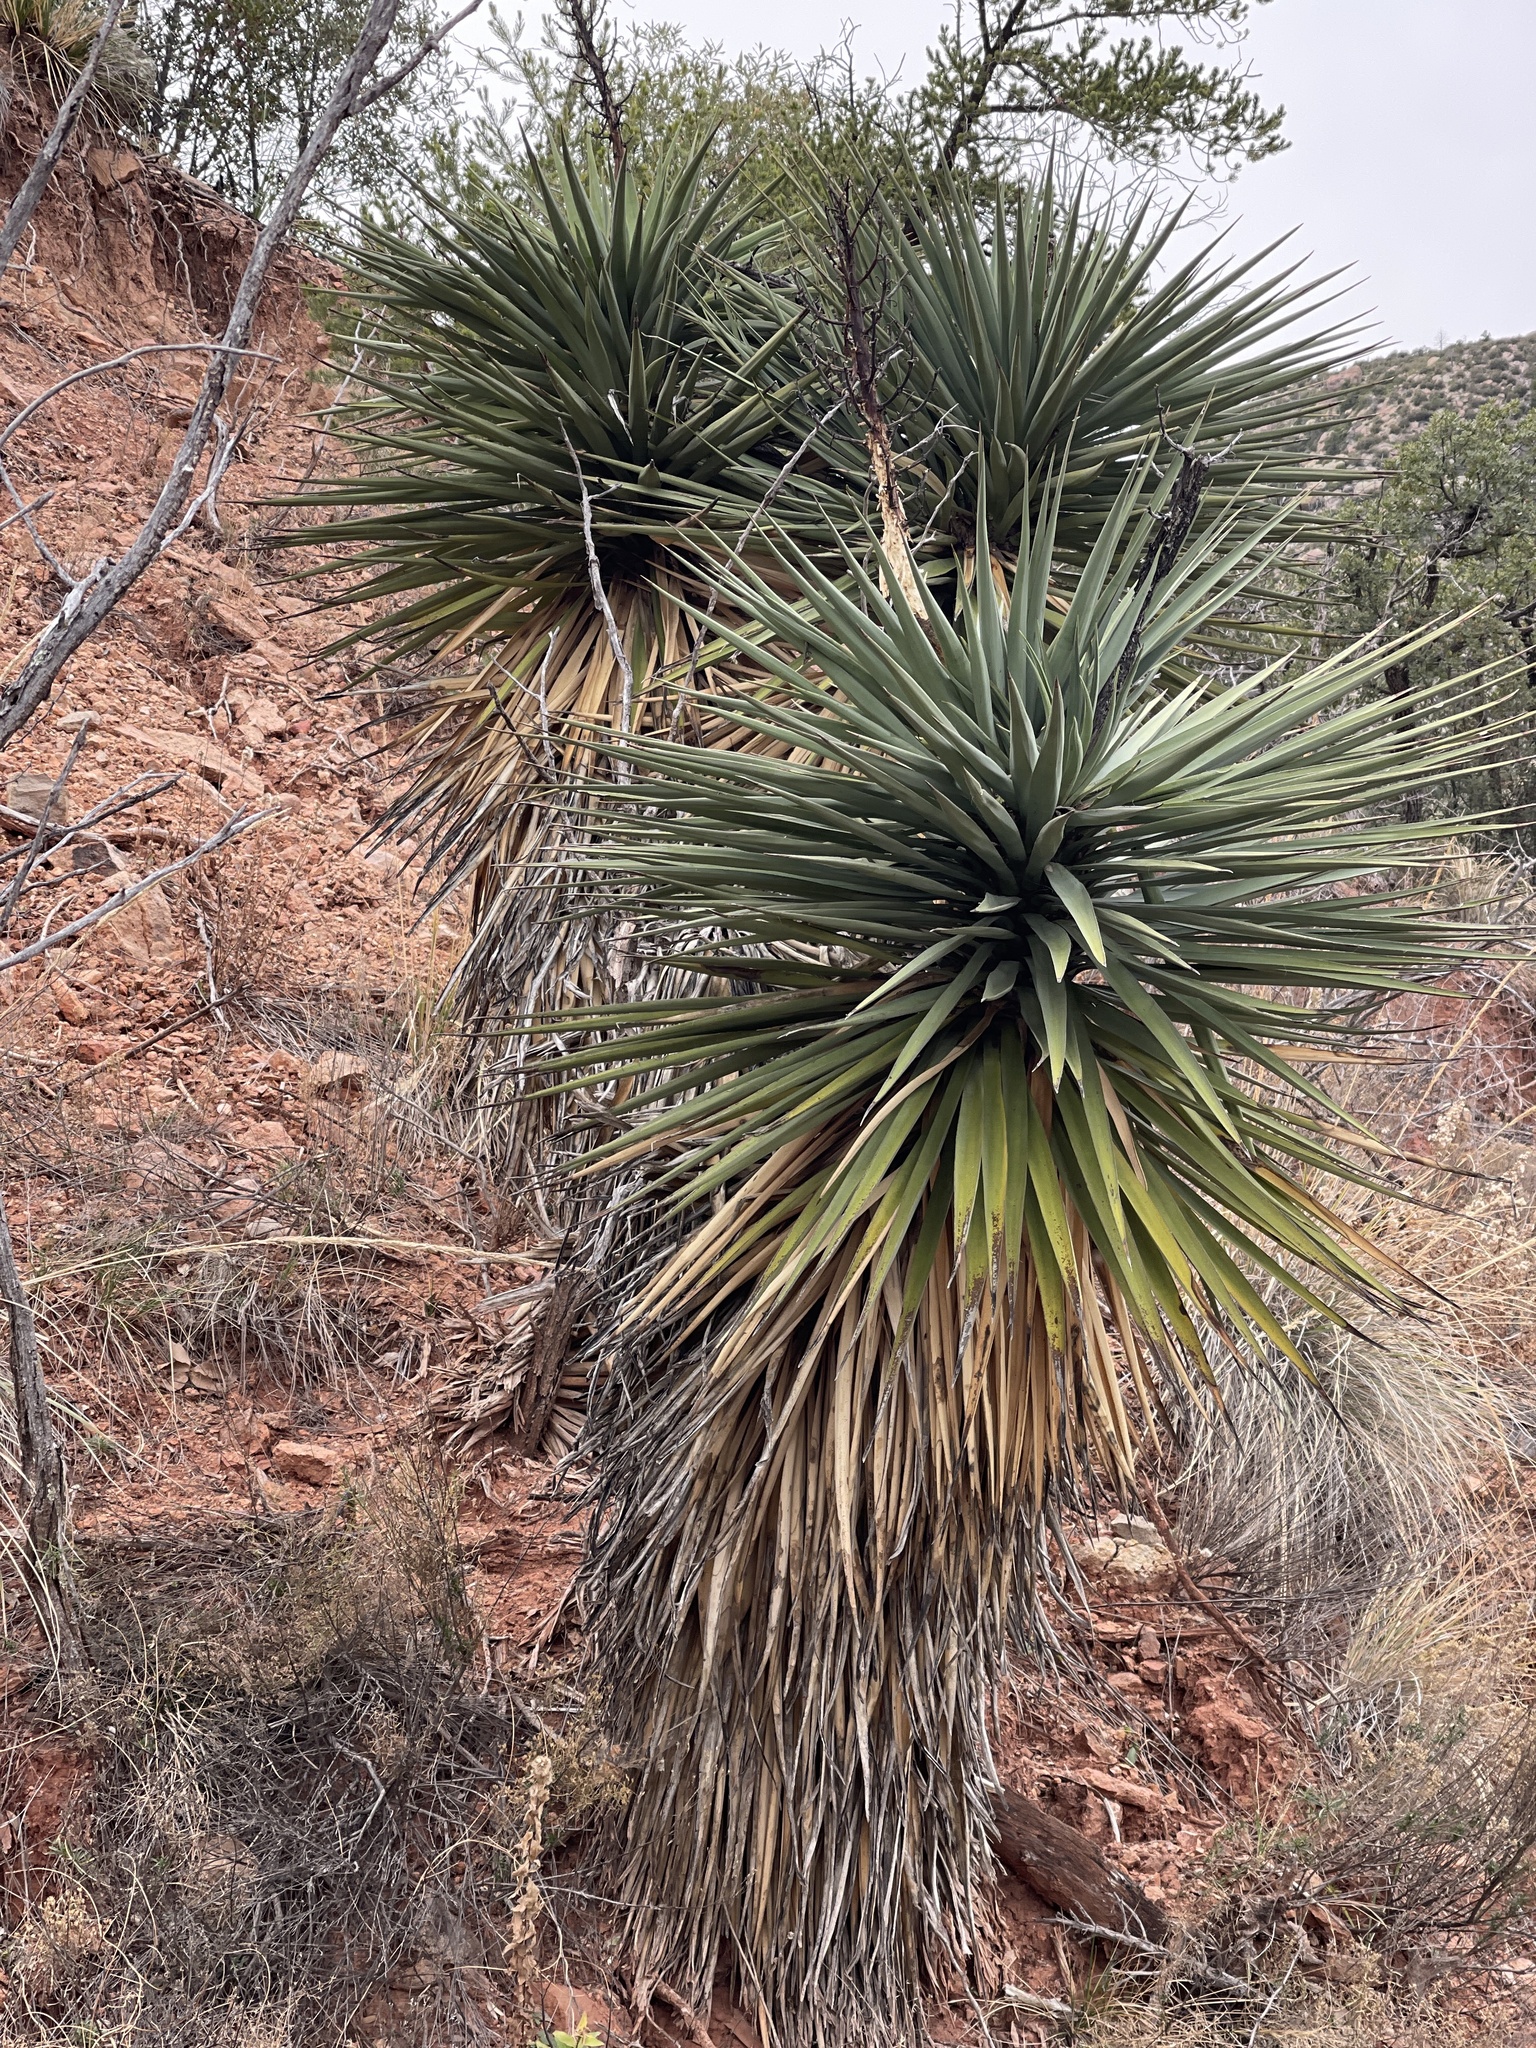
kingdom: Plantae
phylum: Tracheophyta
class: Liliopsida
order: Asparagales
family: Asparagaceae
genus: Yucca
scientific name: Yucca schottii
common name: Hoary yucca
